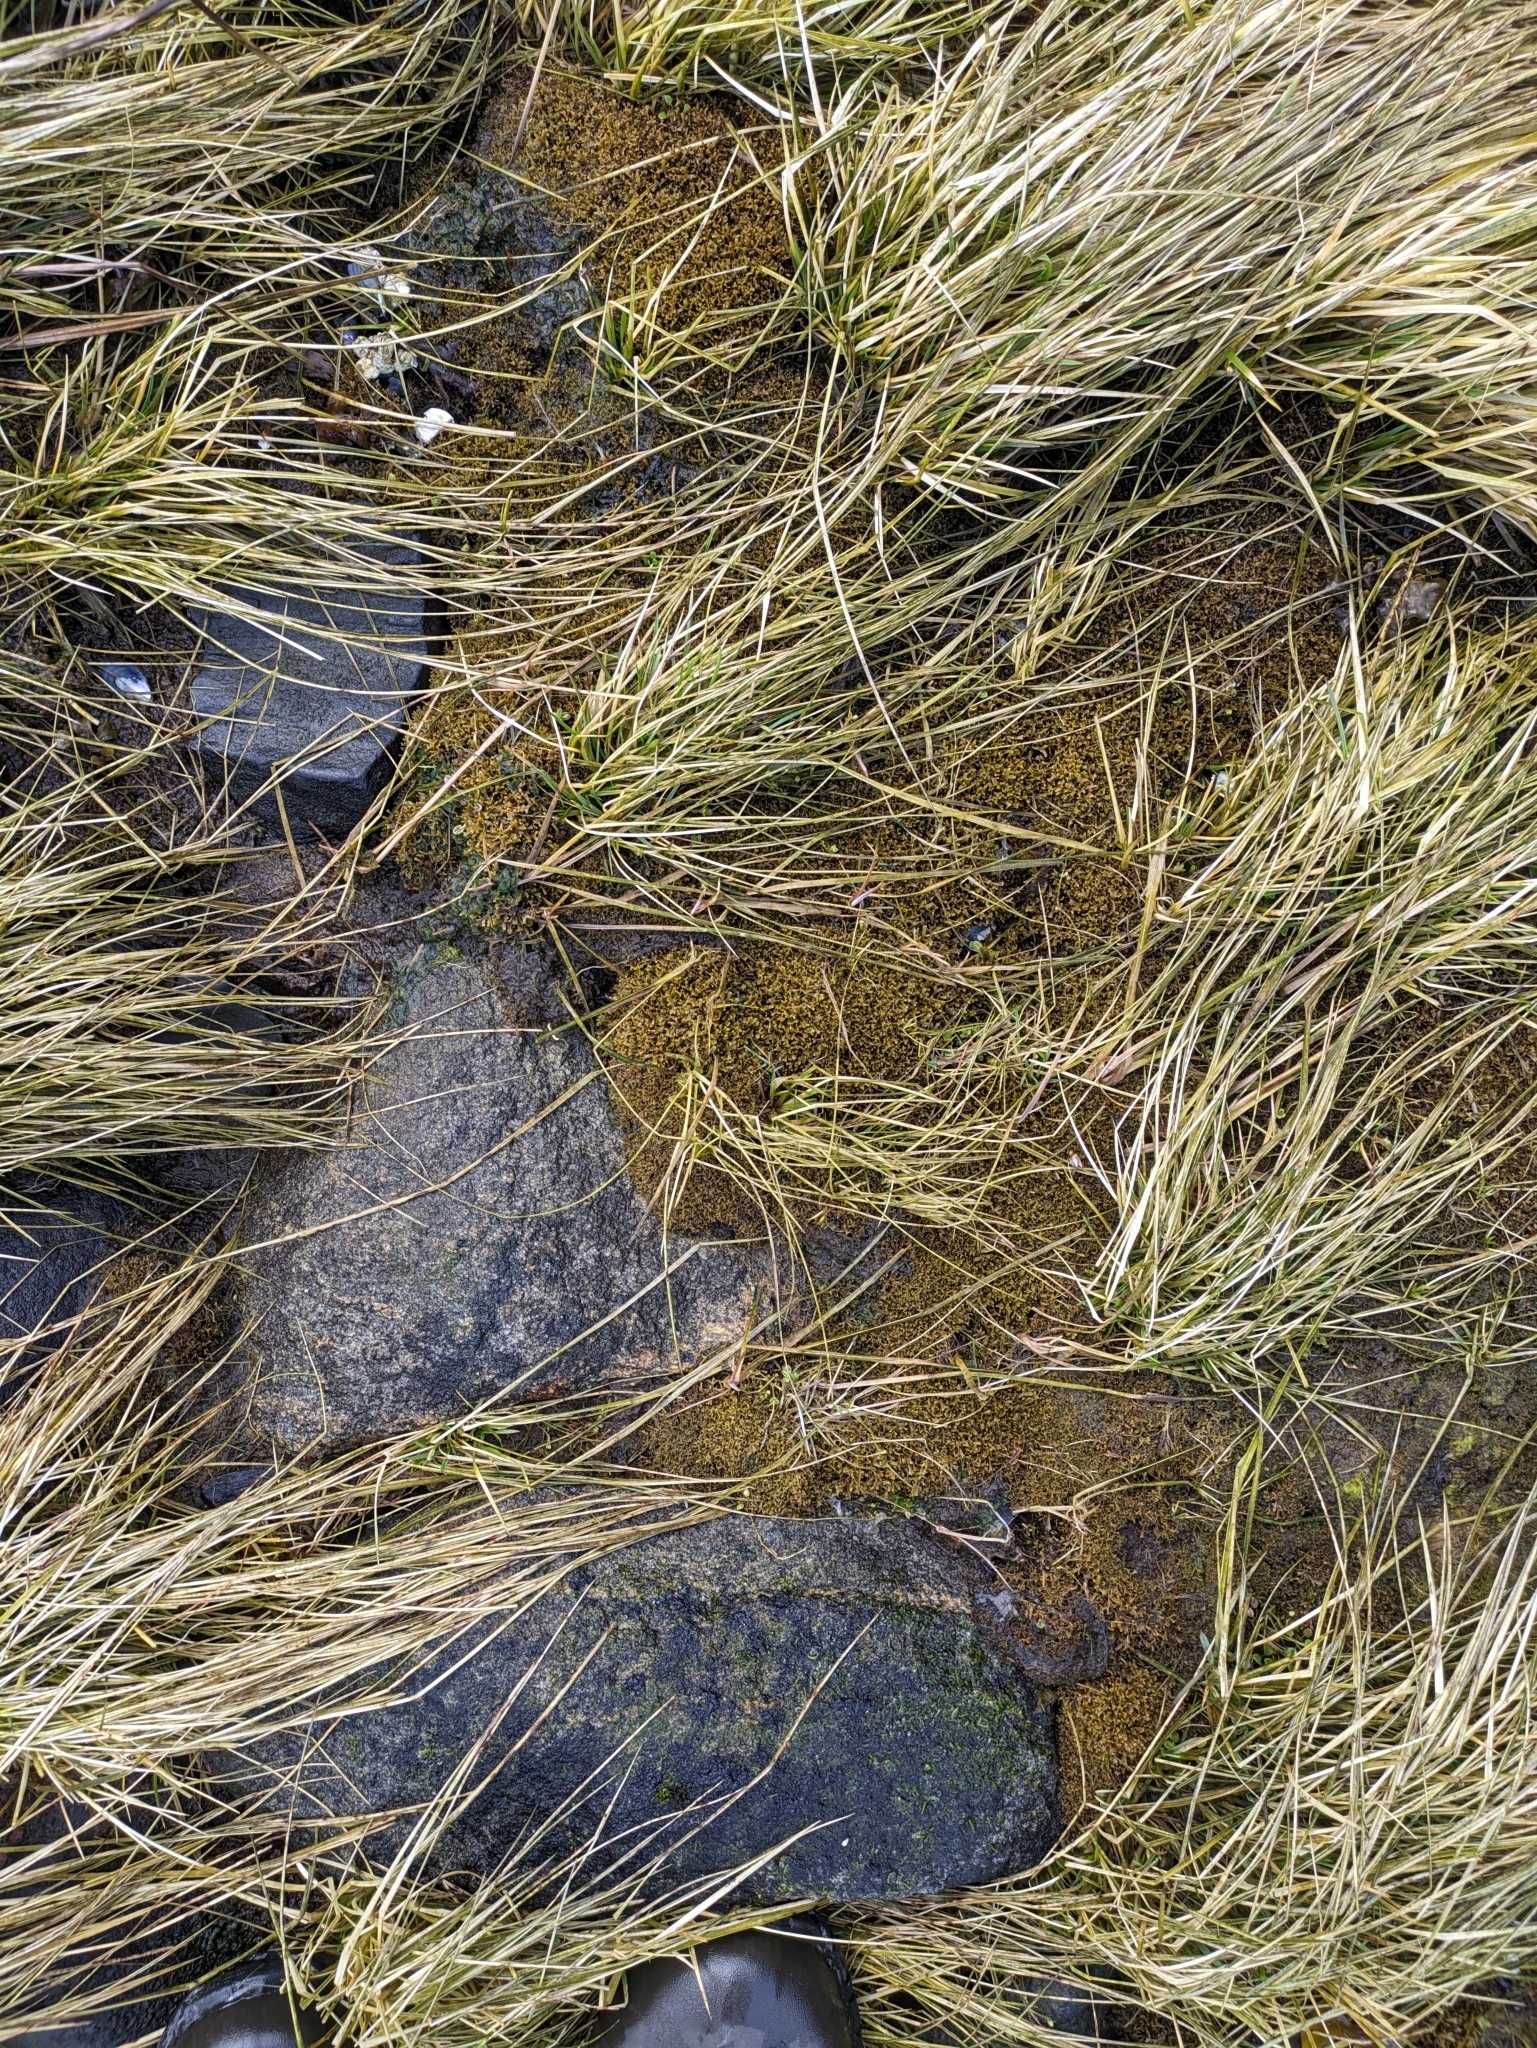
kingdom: Chromista
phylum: Ochrophyta
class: Phaeophyceae
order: Fucales
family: Fucaceae
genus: Fucus
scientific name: Fucus distichus
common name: Rockweed
